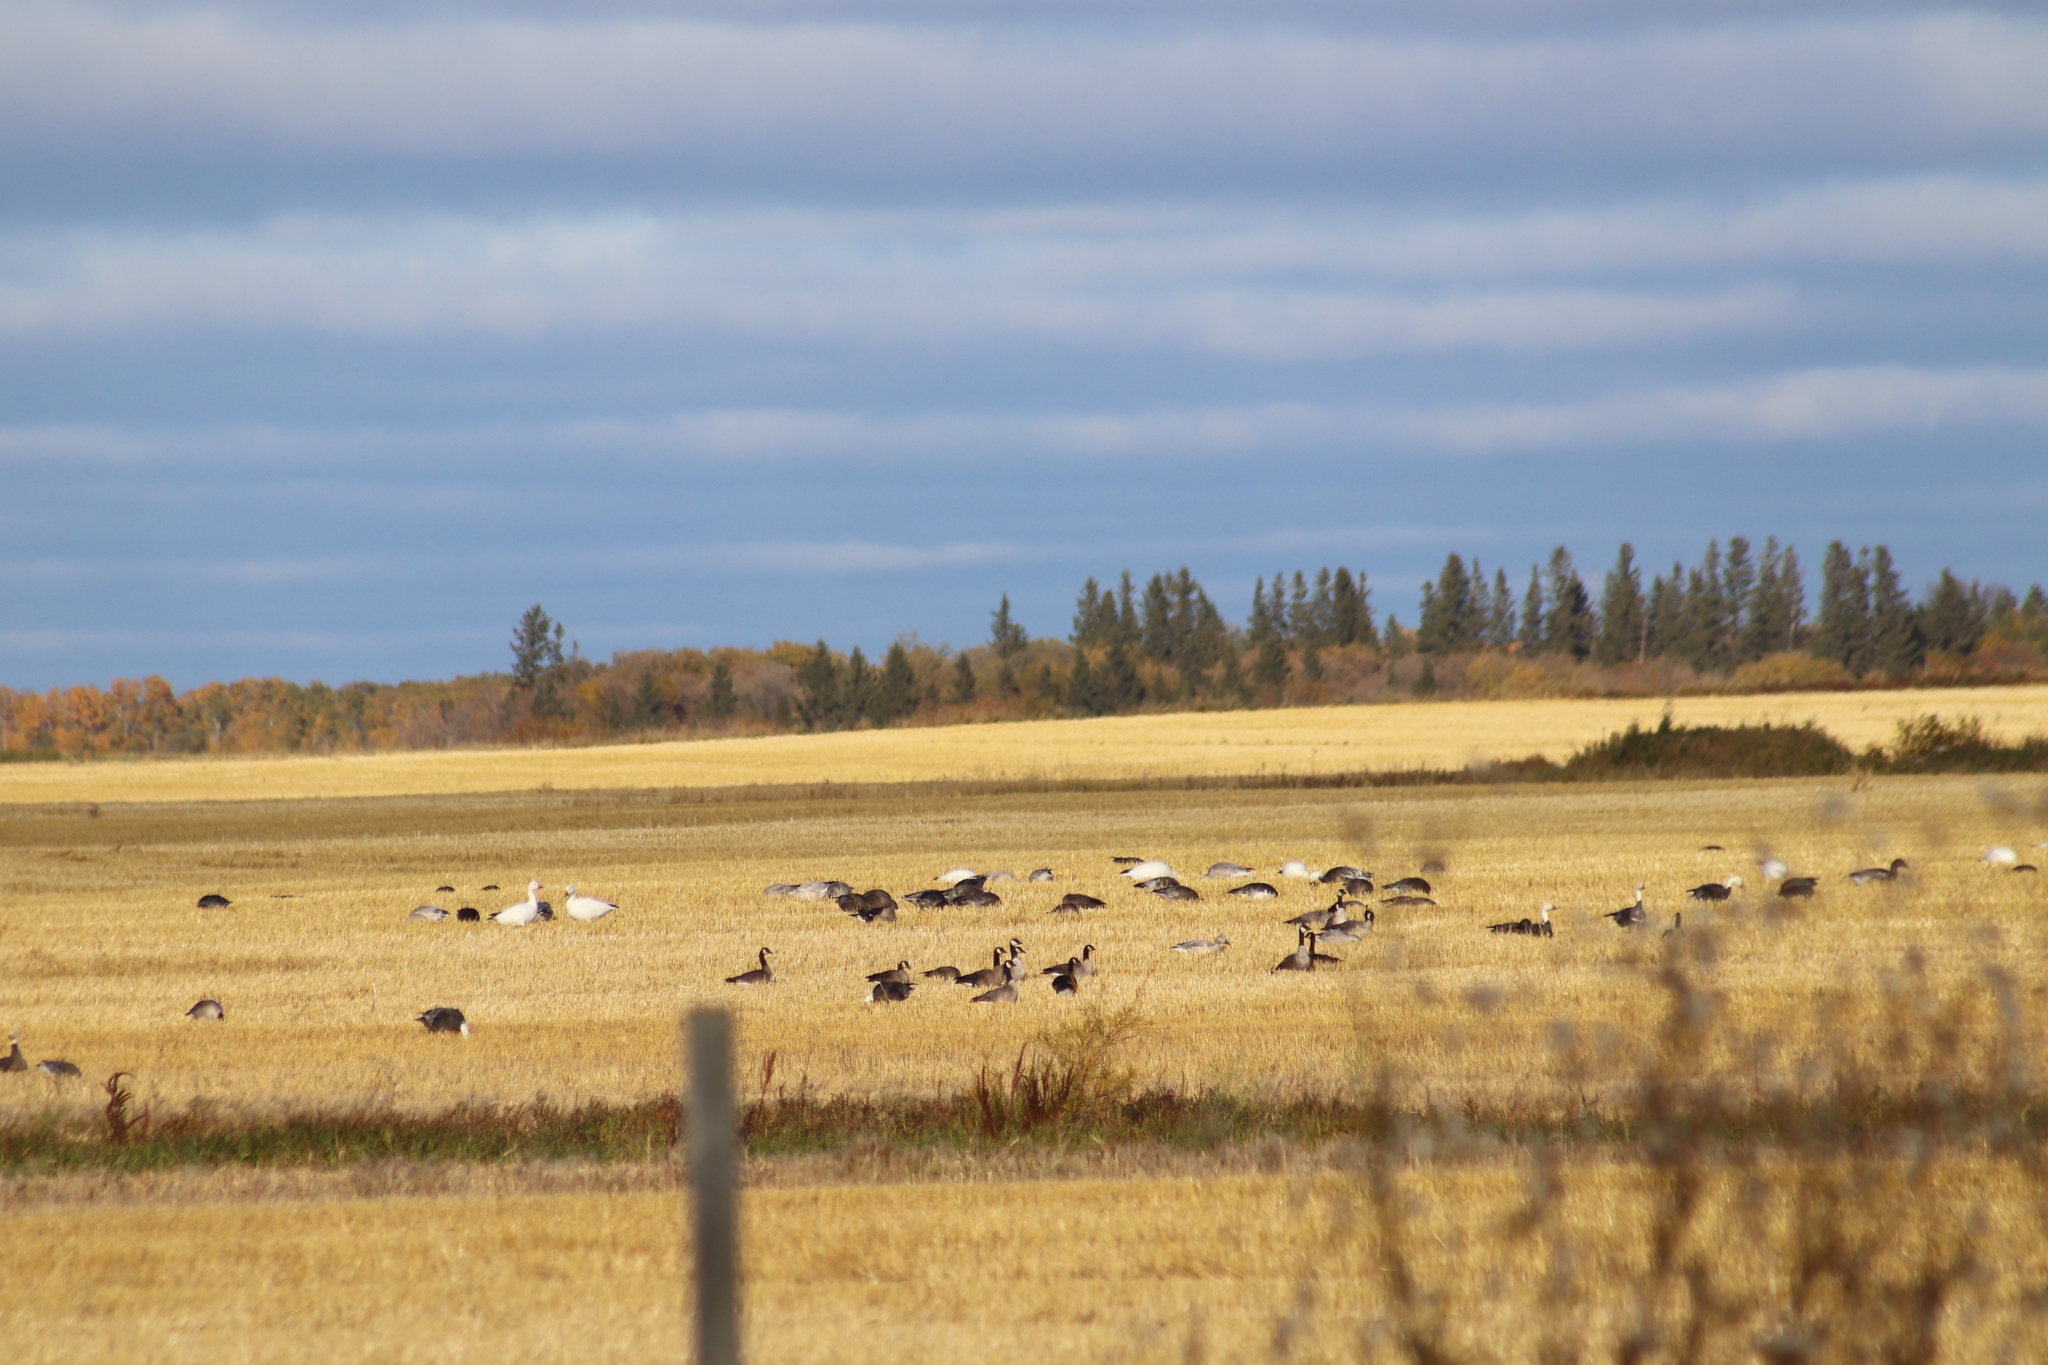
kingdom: Animalia
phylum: Chordata
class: Aves
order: Anseriformes
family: Anatidae
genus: Branta
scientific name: Branta canadensis
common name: Canada goose
